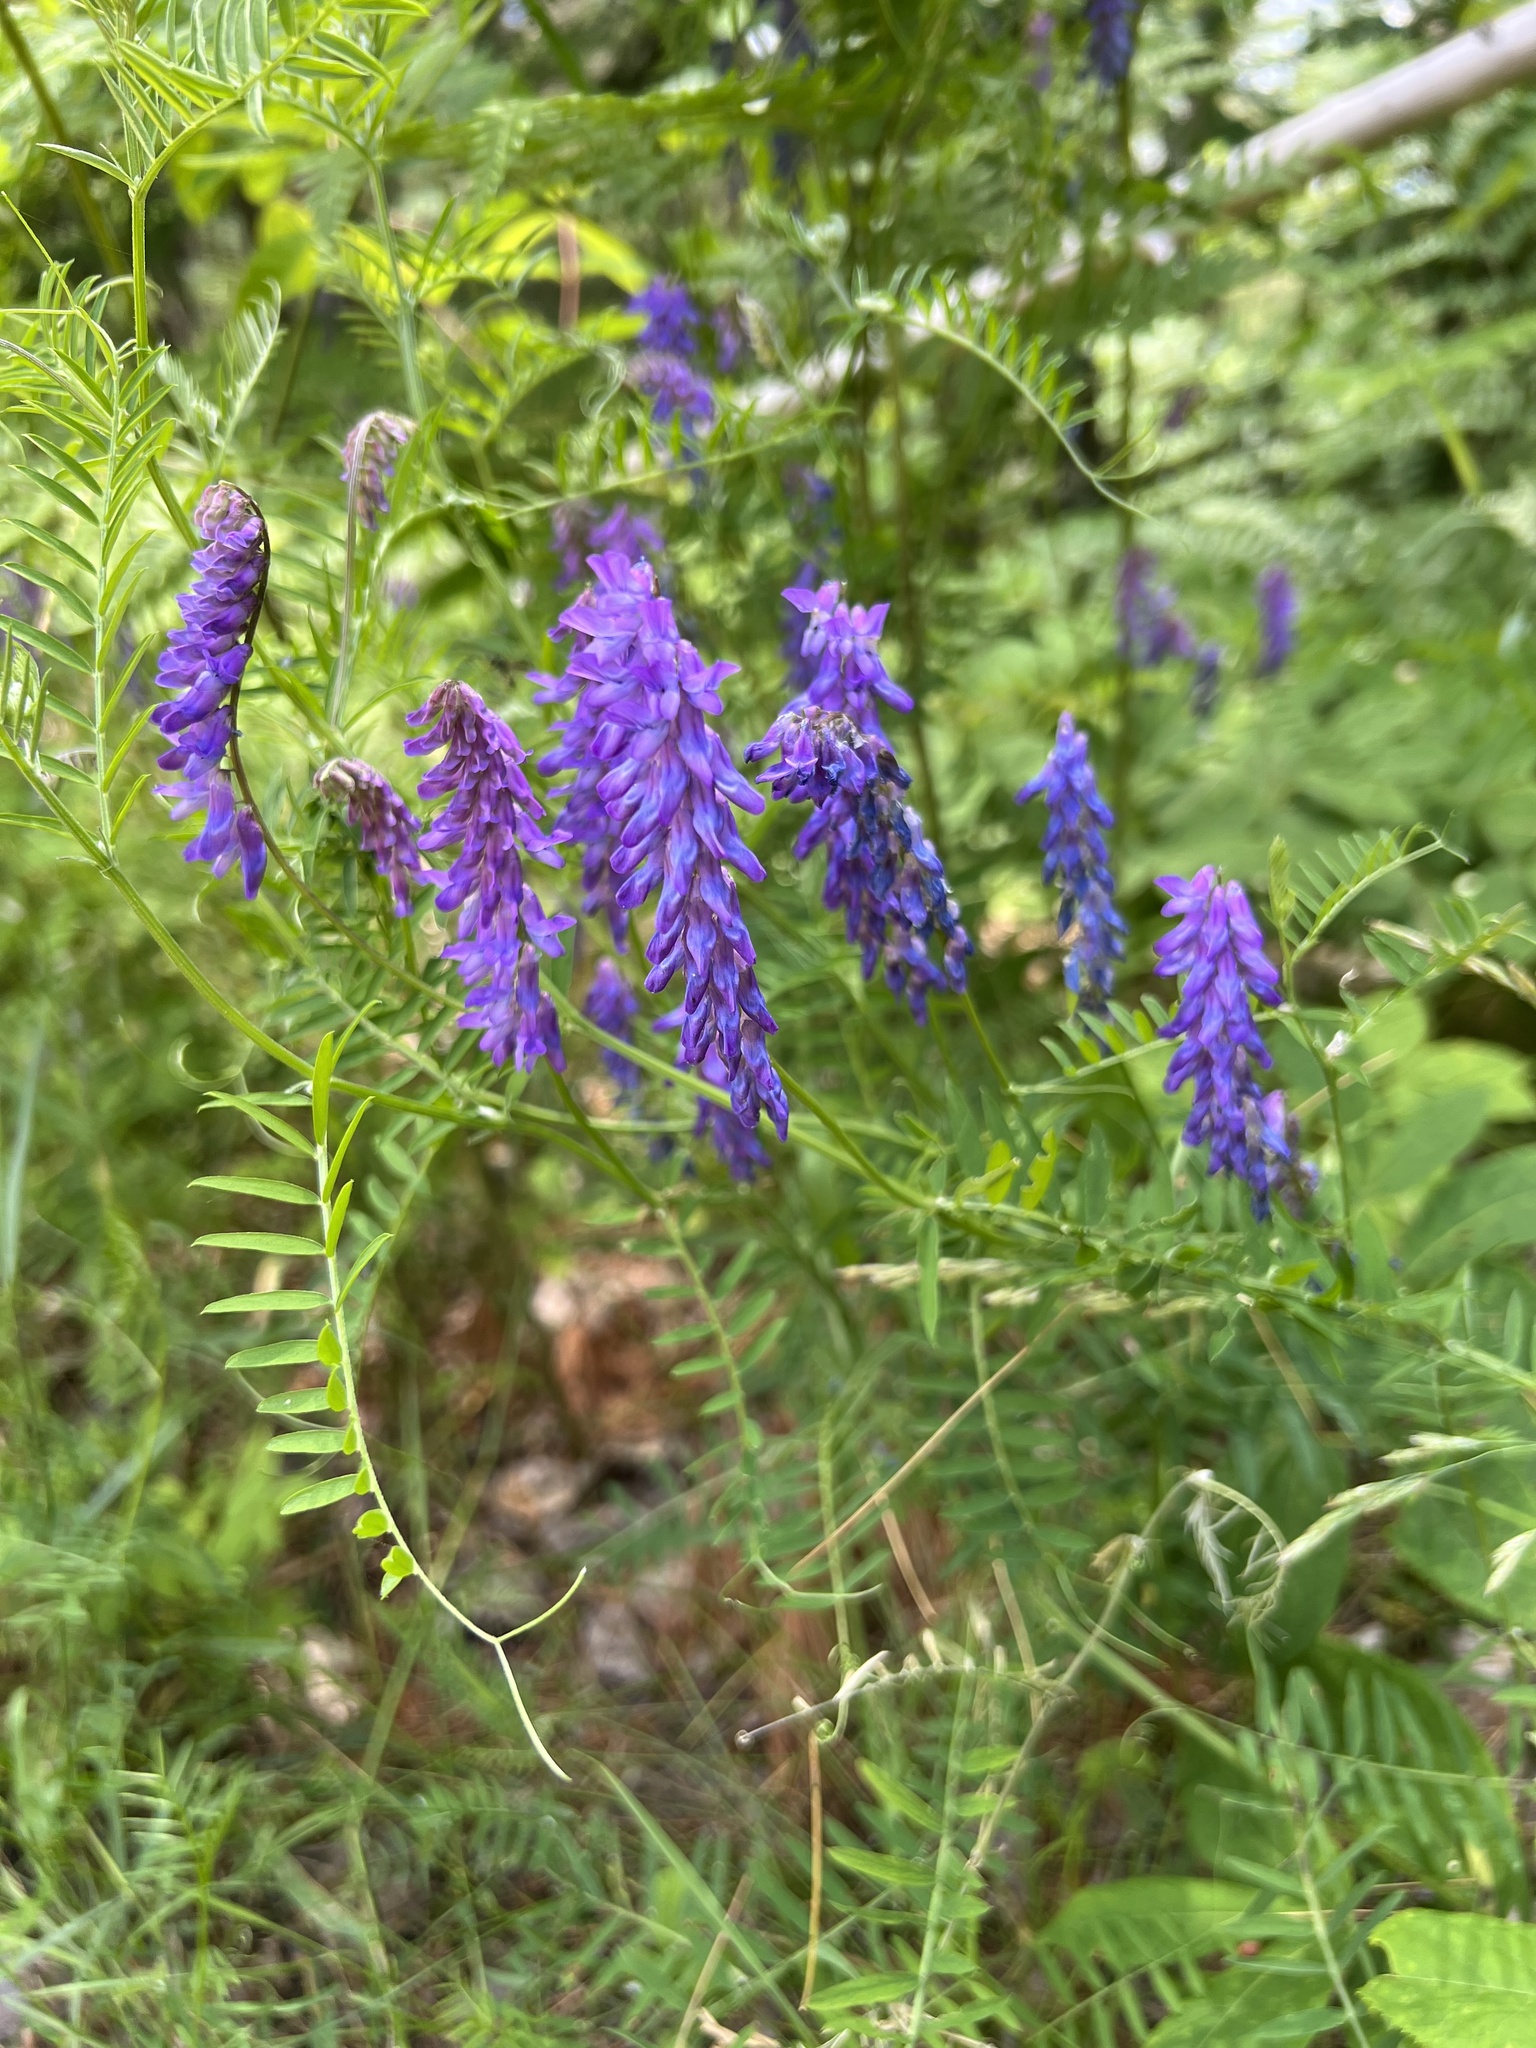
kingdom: Plantae
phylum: Tracheophyta
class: Magnoliopsida
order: Fabales
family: Fabaceae
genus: Vicia
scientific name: Vicia cracca
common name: Bird vetch
